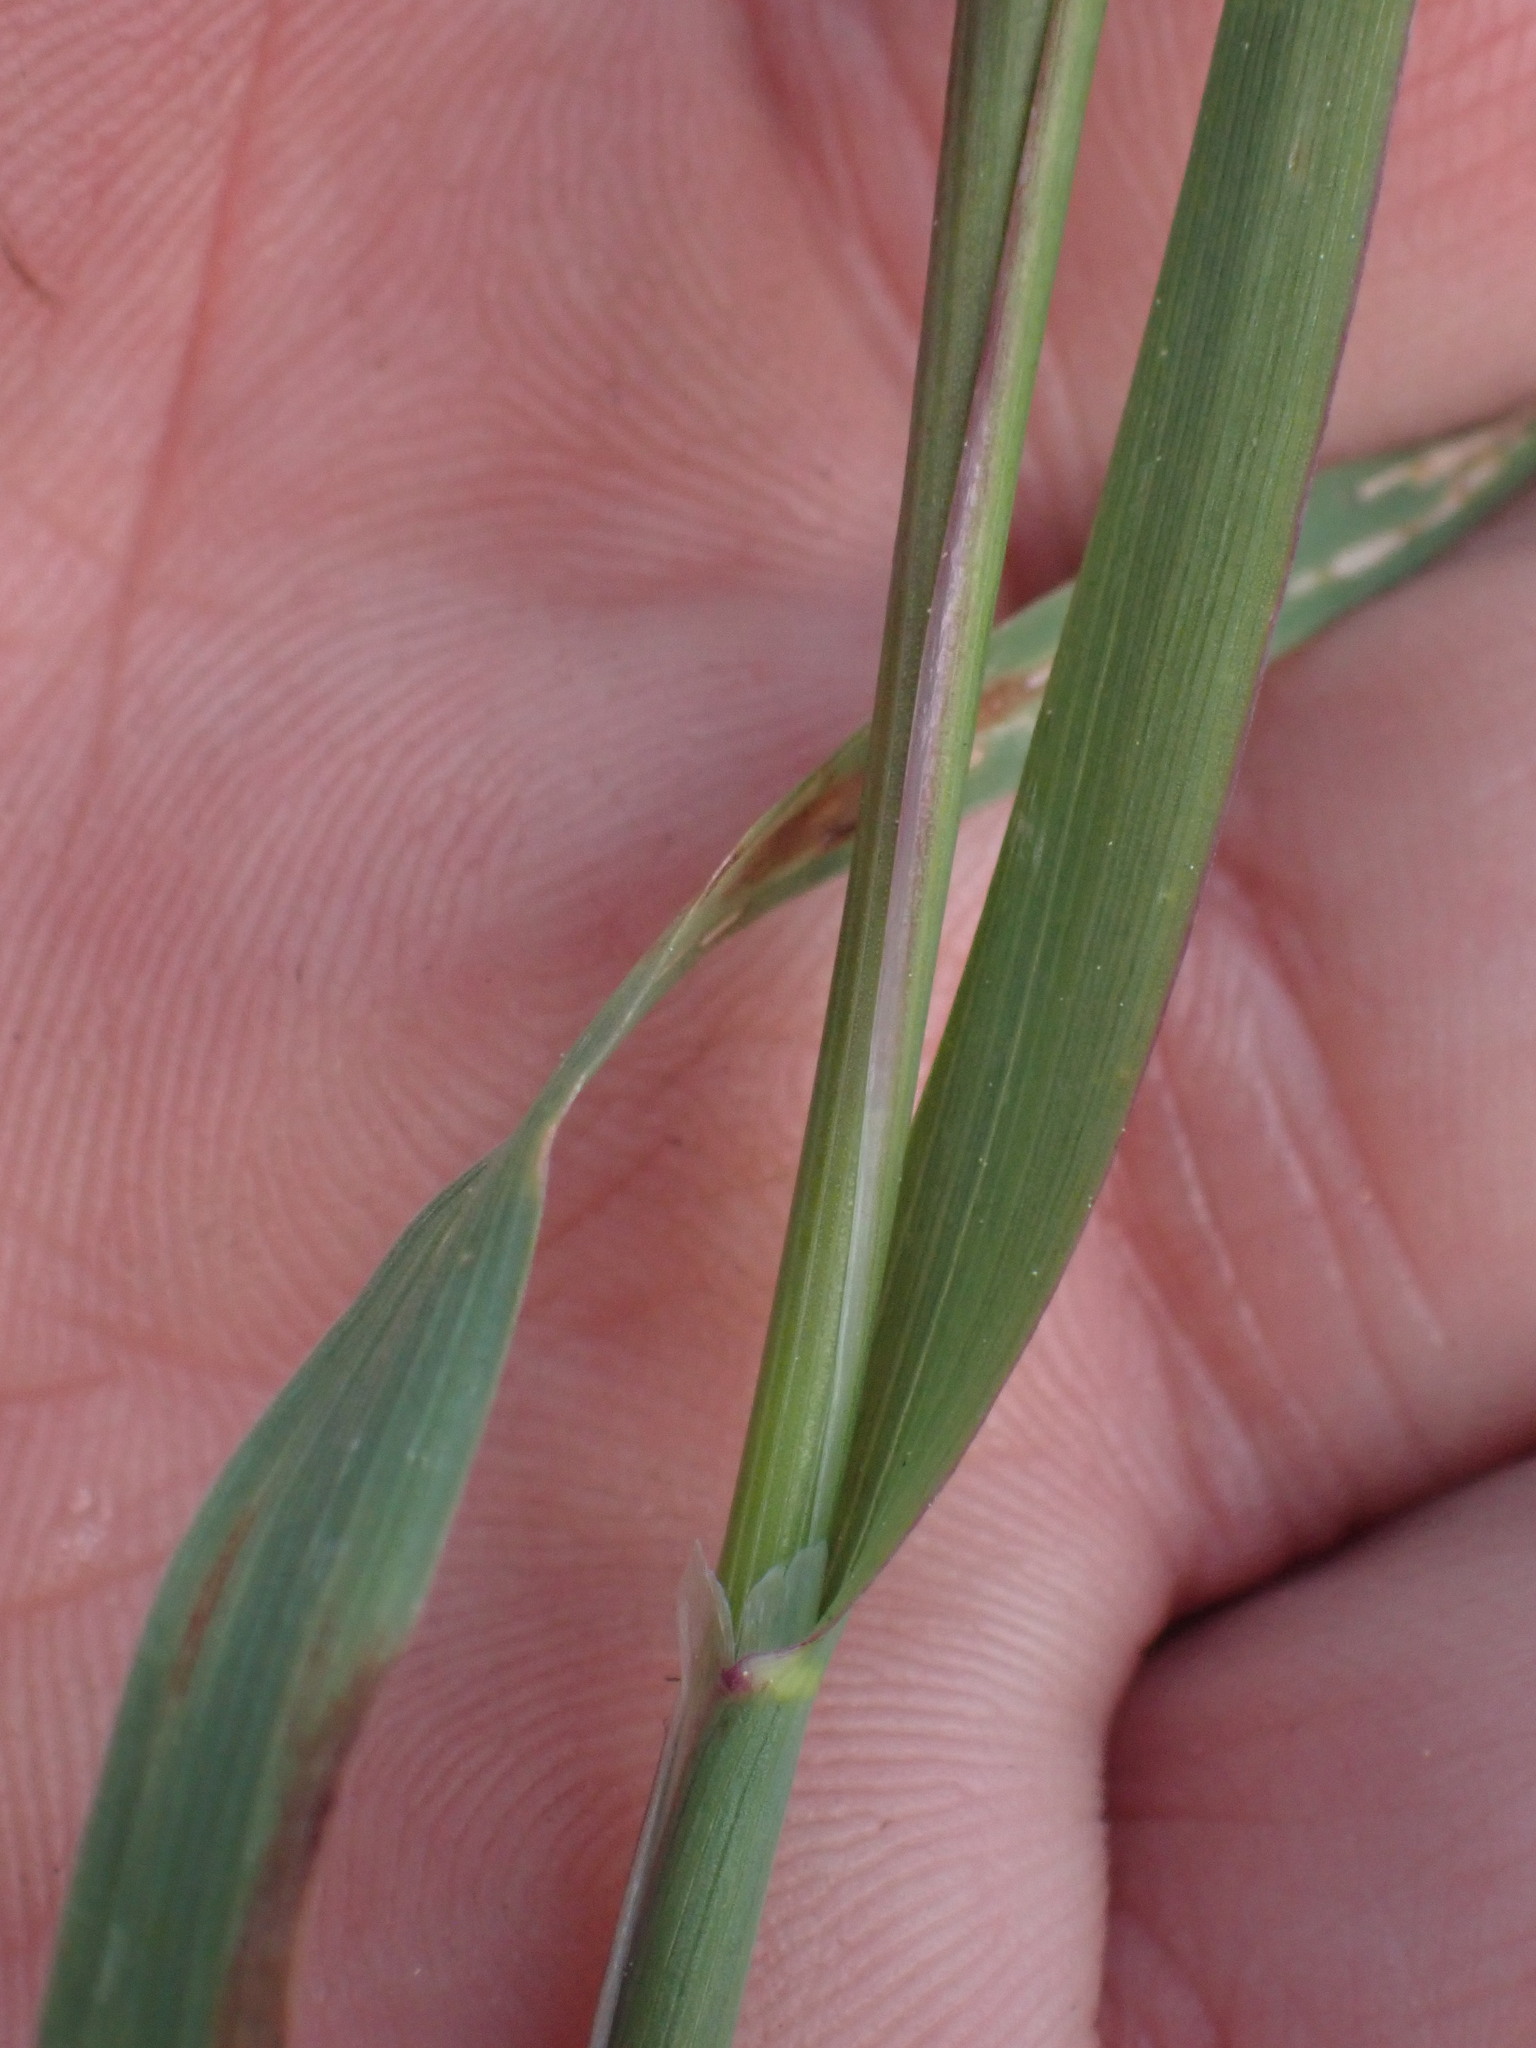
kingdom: Plantae
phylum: Tracheophyta
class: Liliopsida
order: Poales
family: Poaceae
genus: Phleum
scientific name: Phleum alpinum
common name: Alpine cat's-tail
